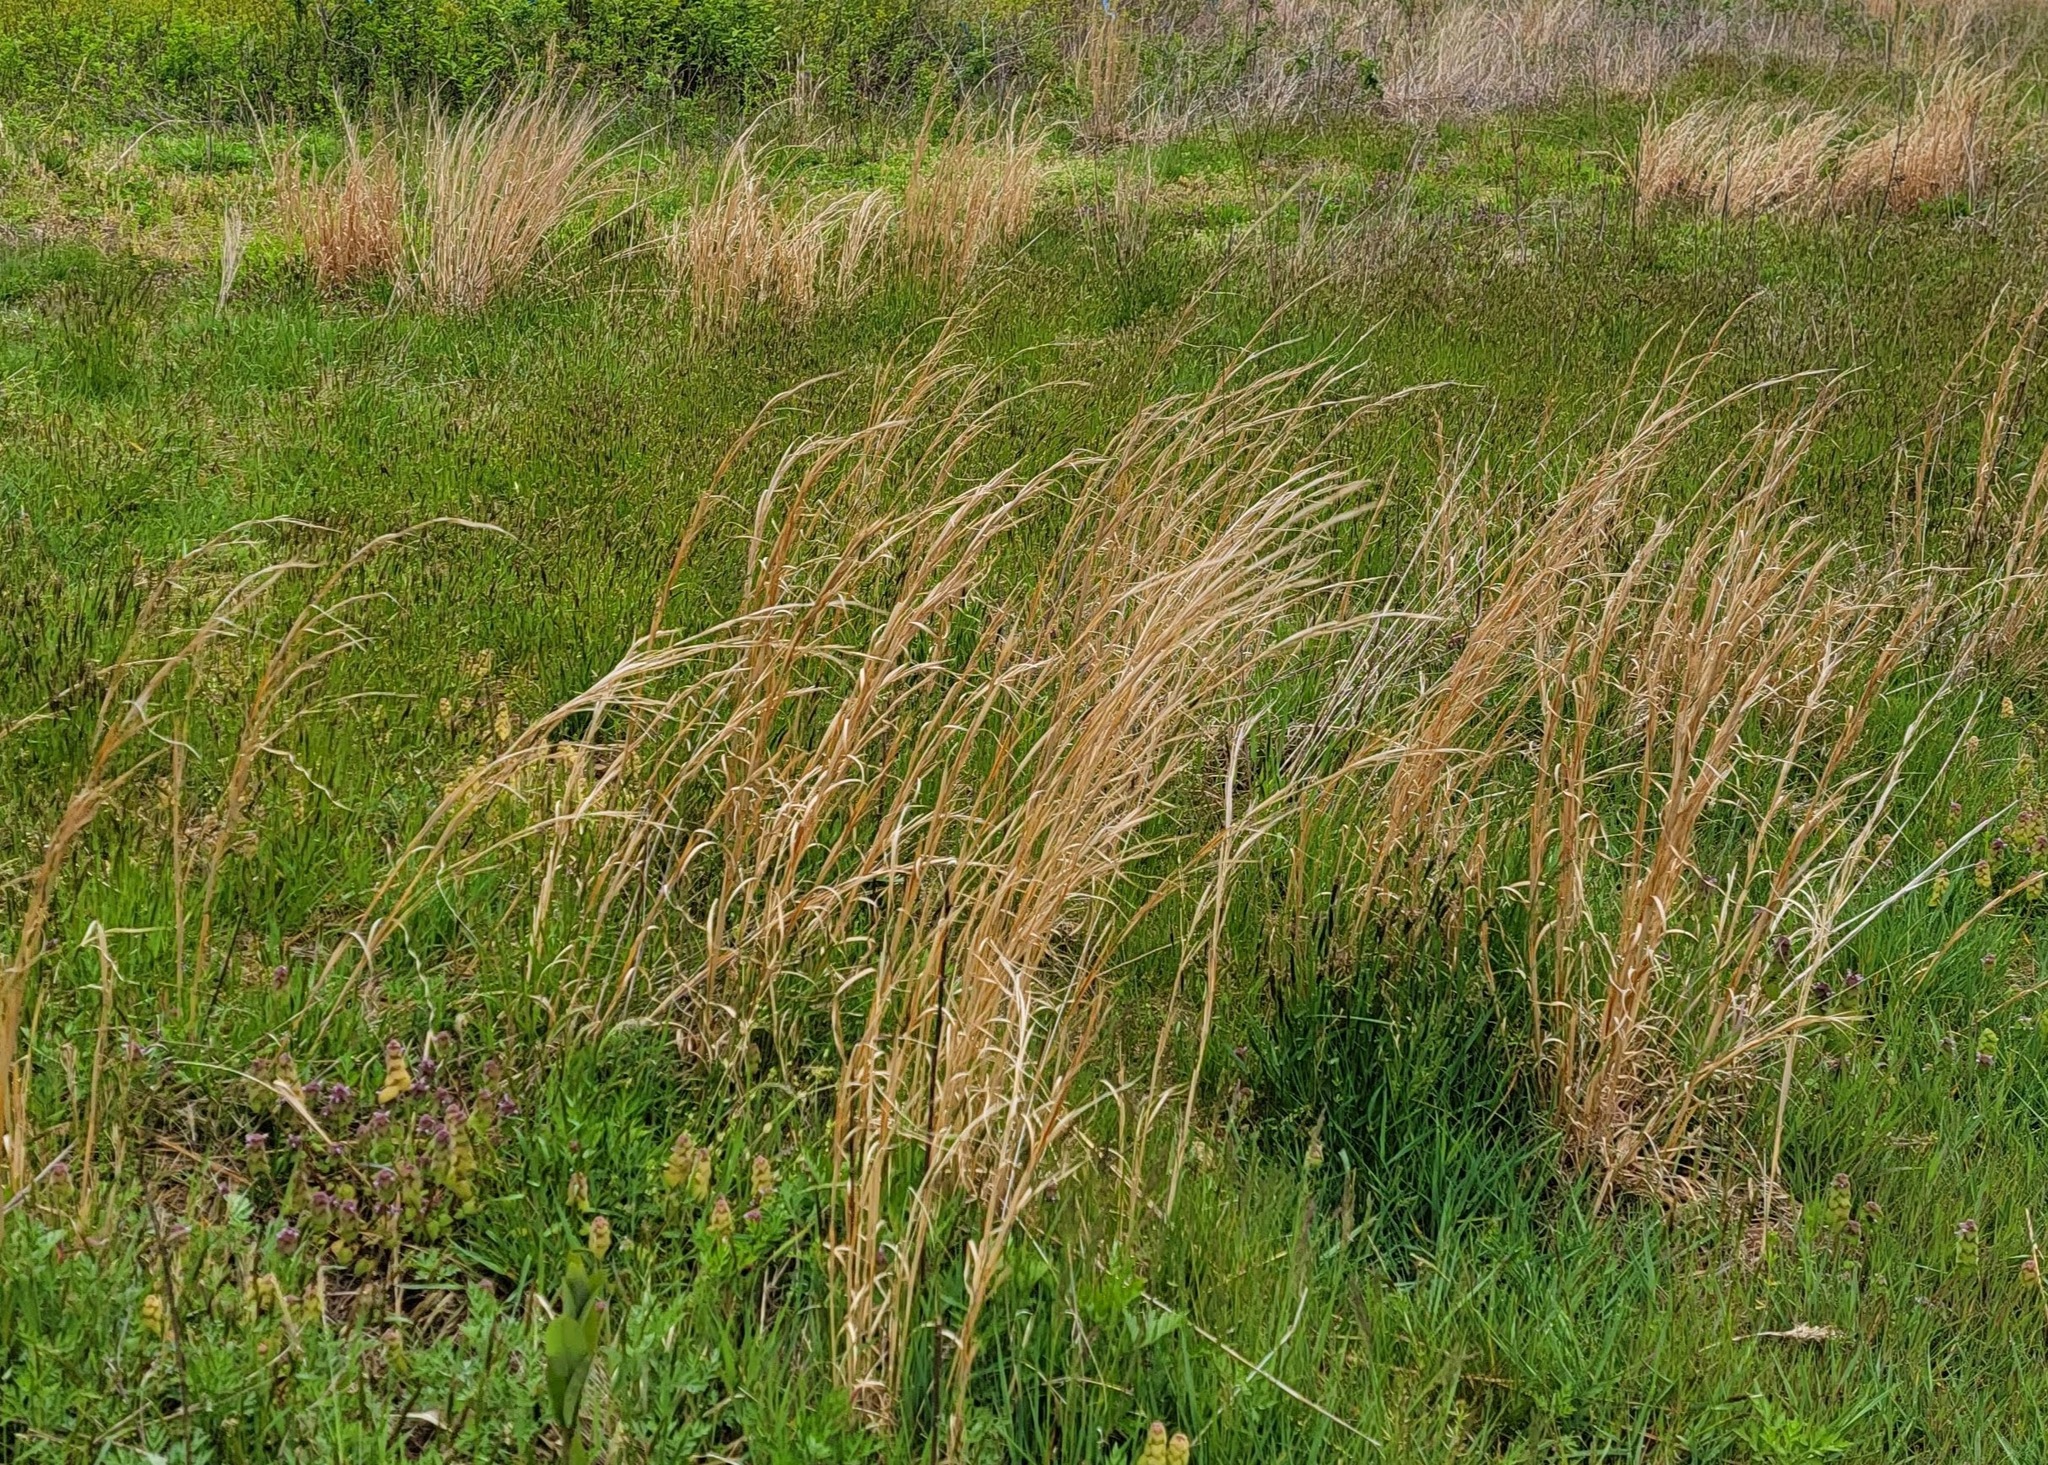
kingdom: Plantae
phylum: Tracheophyta
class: Liliopsida
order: Poales
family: Poaceae
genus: Andropogon
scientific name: Andropogon virginicus
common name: Broomsedge bluestem
